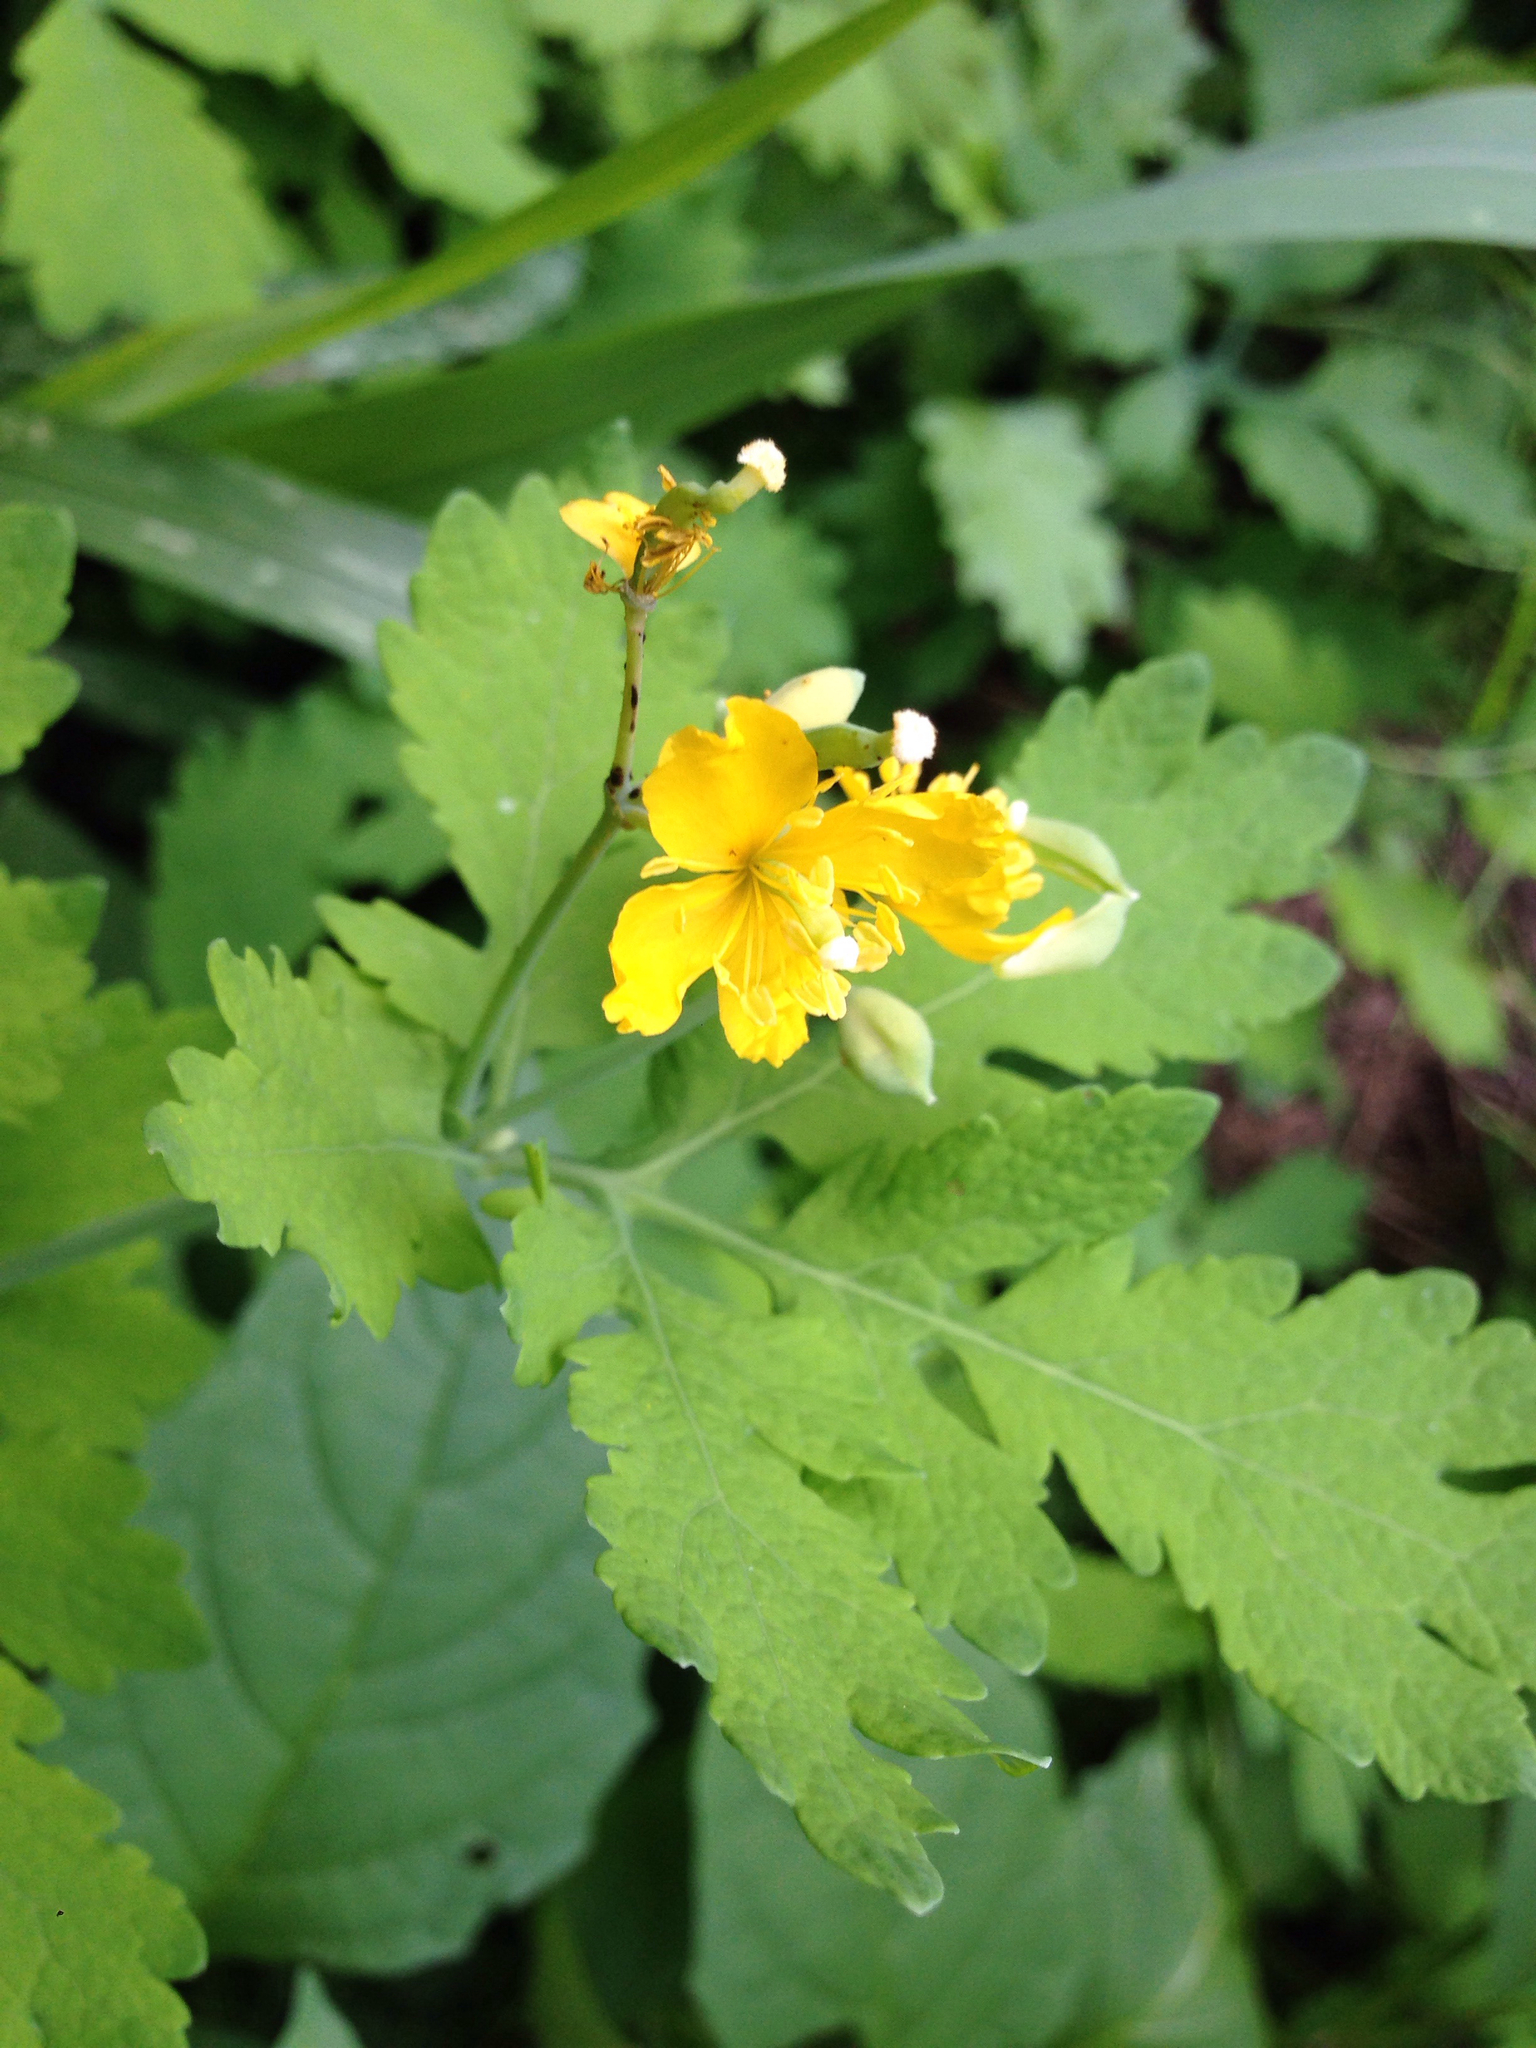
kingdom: Plantae
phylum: Tracheophyta
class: Magnoliopsida
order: Ranunculales
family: Papaveraceae
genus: Chelidonium
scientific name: Chelidonium majus
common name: Greater celandine
